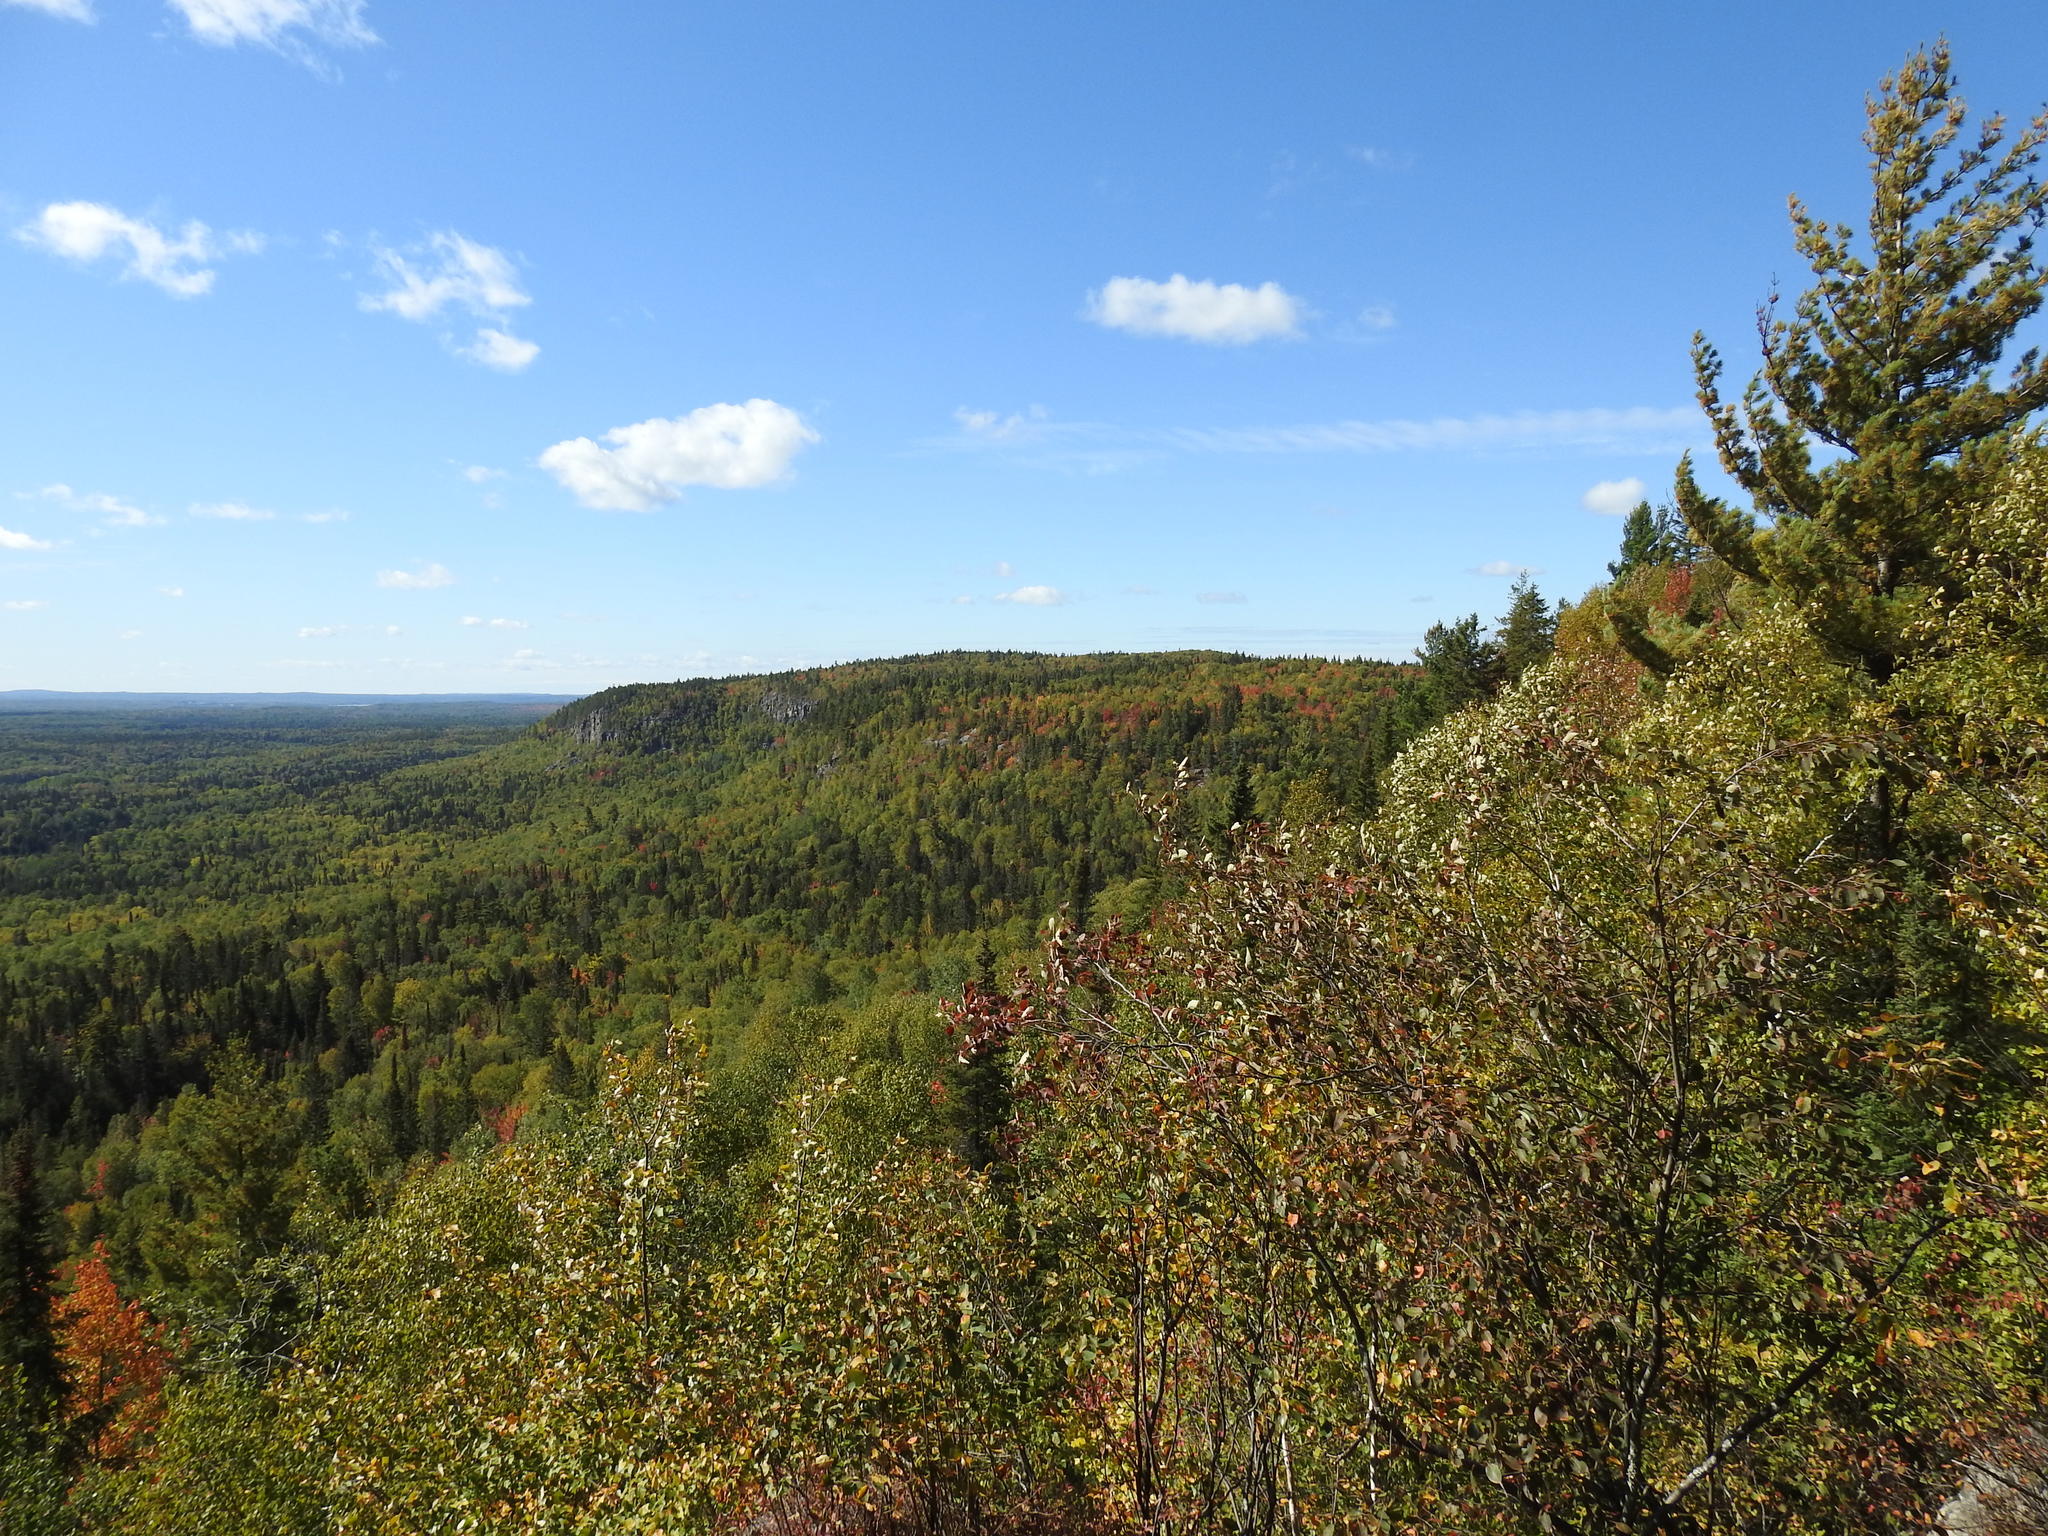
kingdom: Plantae
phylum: Tracheophyta
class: Pinopsida
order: Pinales
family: Pinaceae
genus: Pinus
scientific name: Pinus strobus
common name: Weymouth pine
